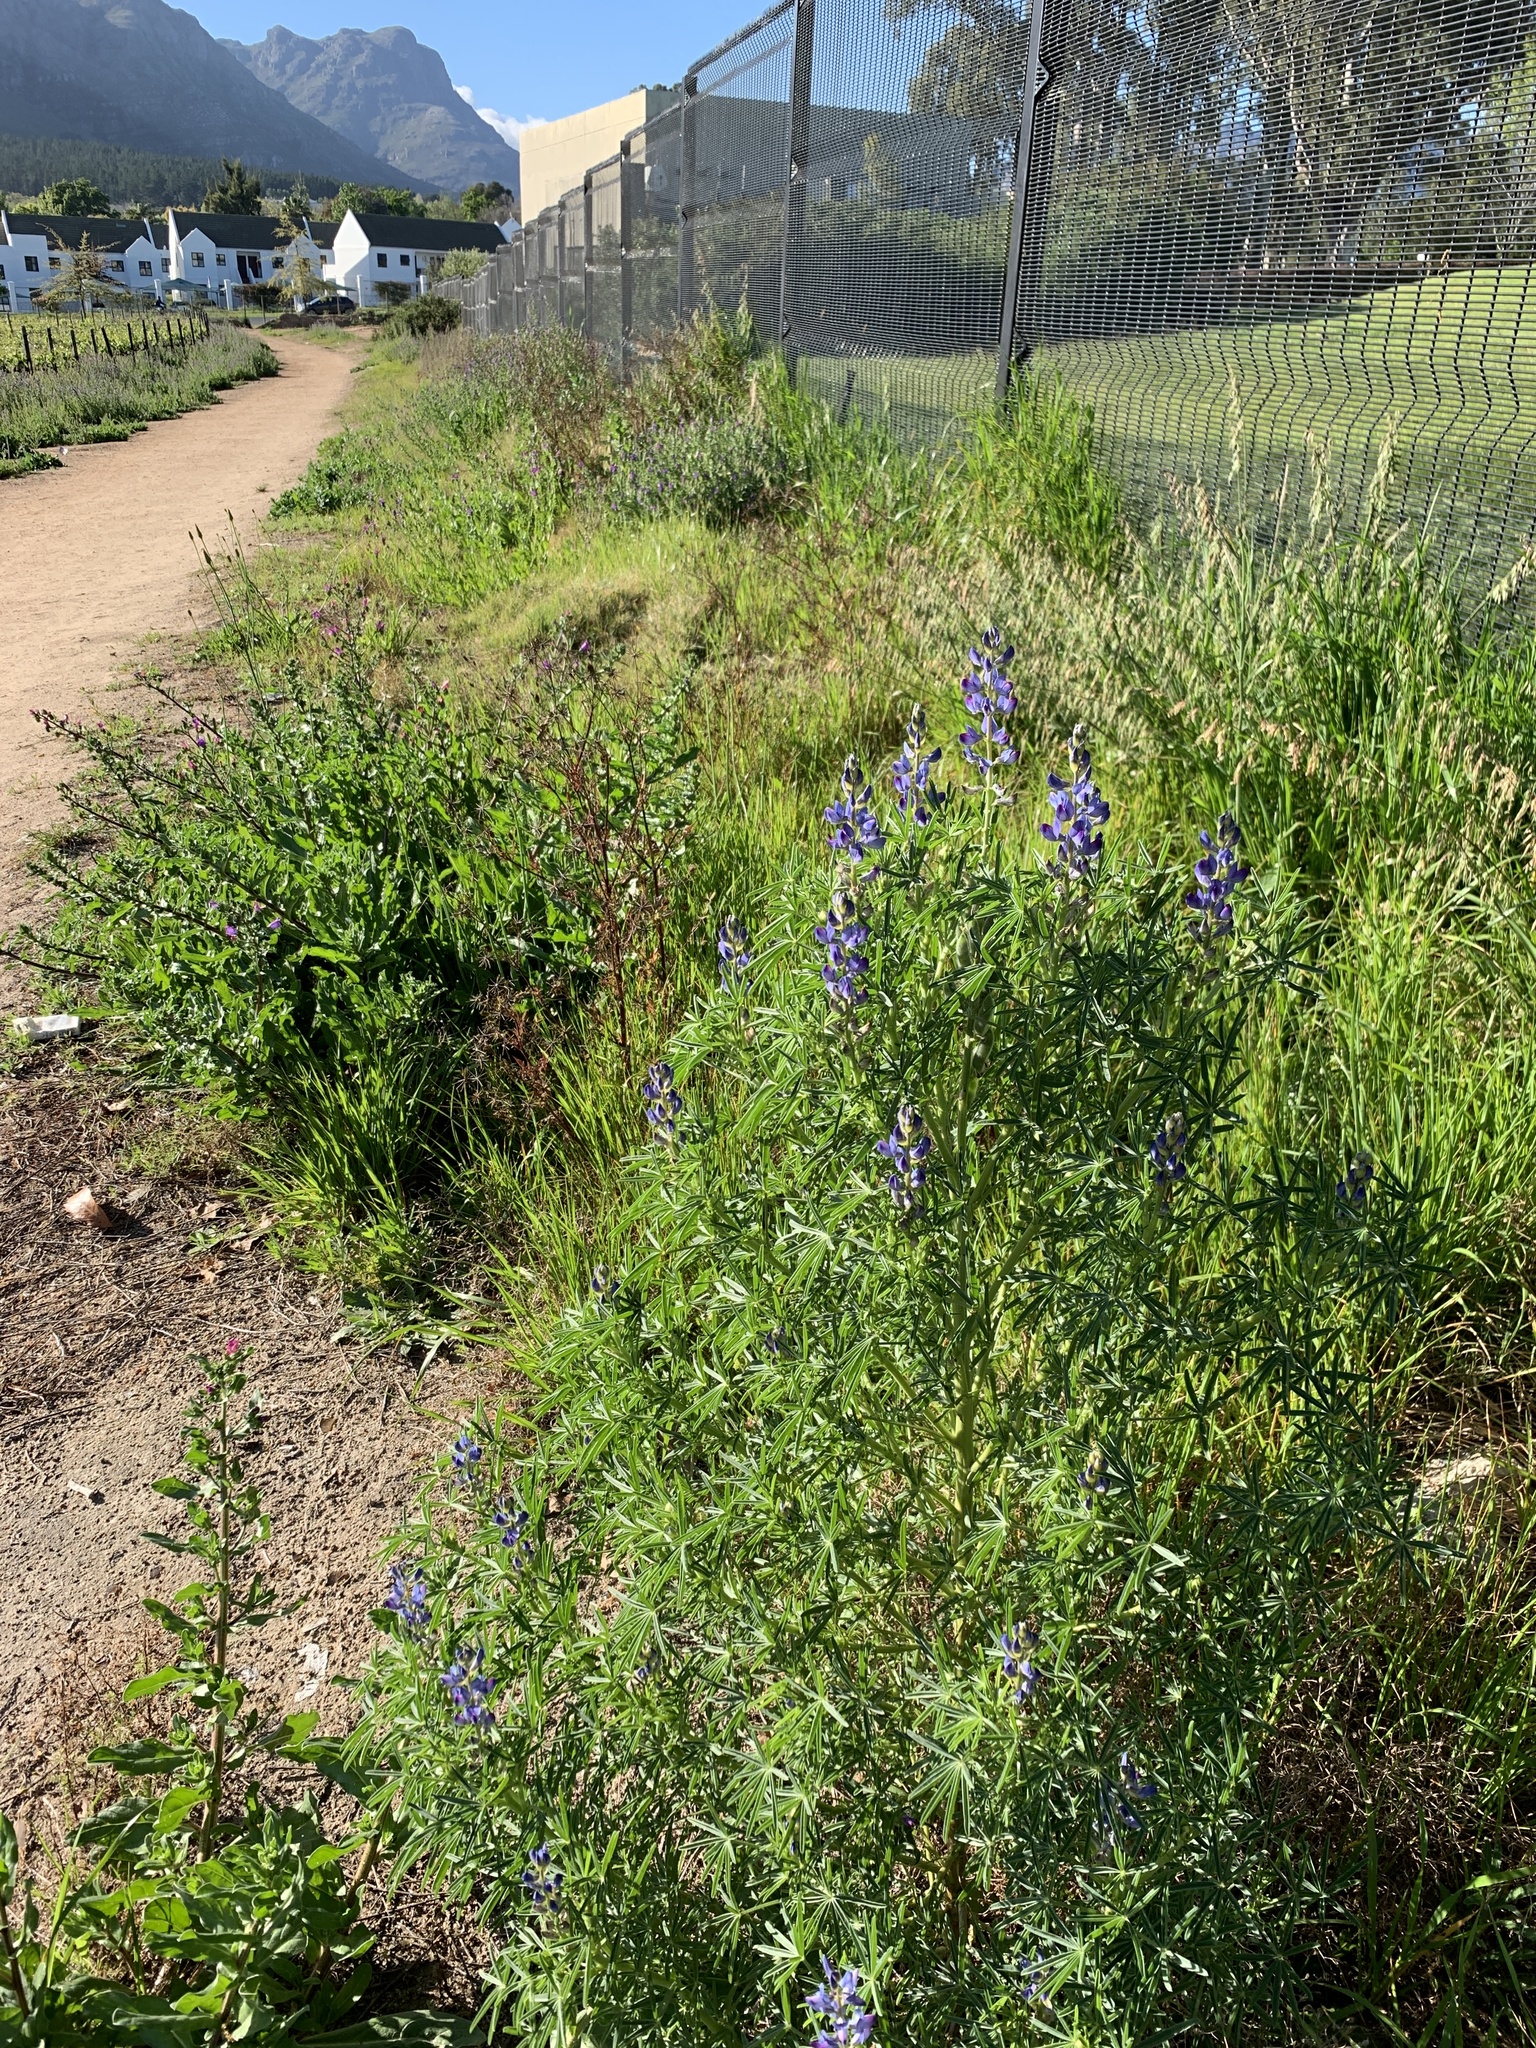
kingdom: Plantae
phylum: Tracheophyta
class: Magnoliopsida
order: Fabales
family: Fabaceae
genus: Lupinus
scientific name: Lupinus angustifolius
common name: Narrow-leaved lupin
